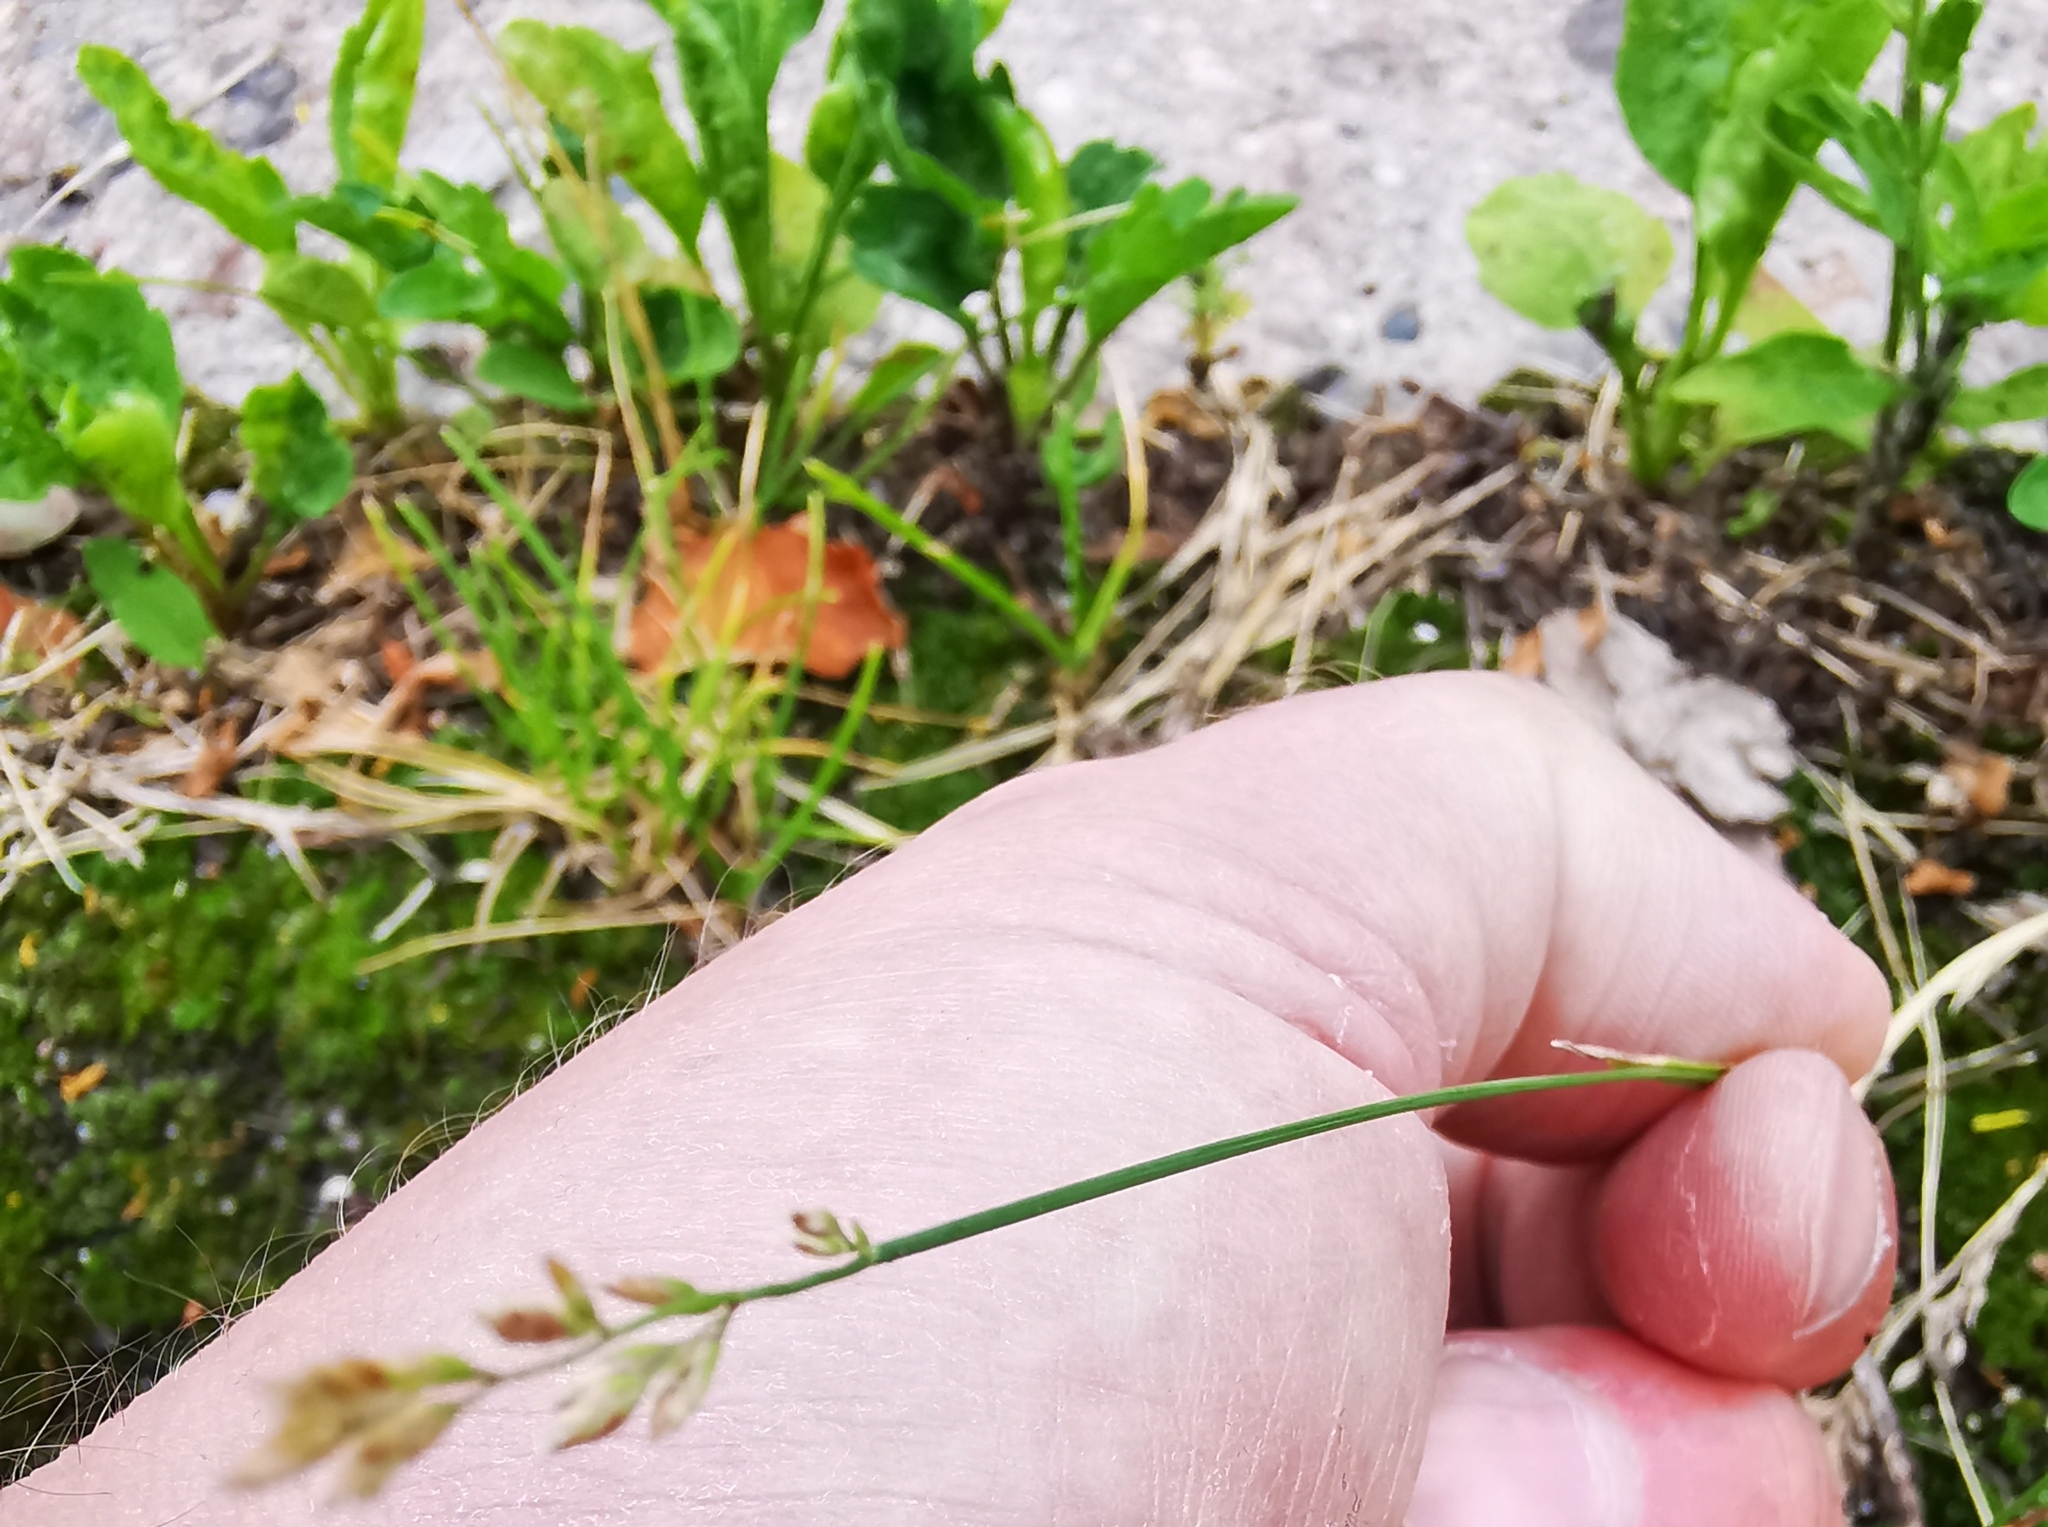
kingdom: Plantae
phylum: Tracheophyta
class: Liliopsida
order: Poales
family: Poaceae
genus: Poa
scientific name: Poa compressa
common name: Canada bluegrass
